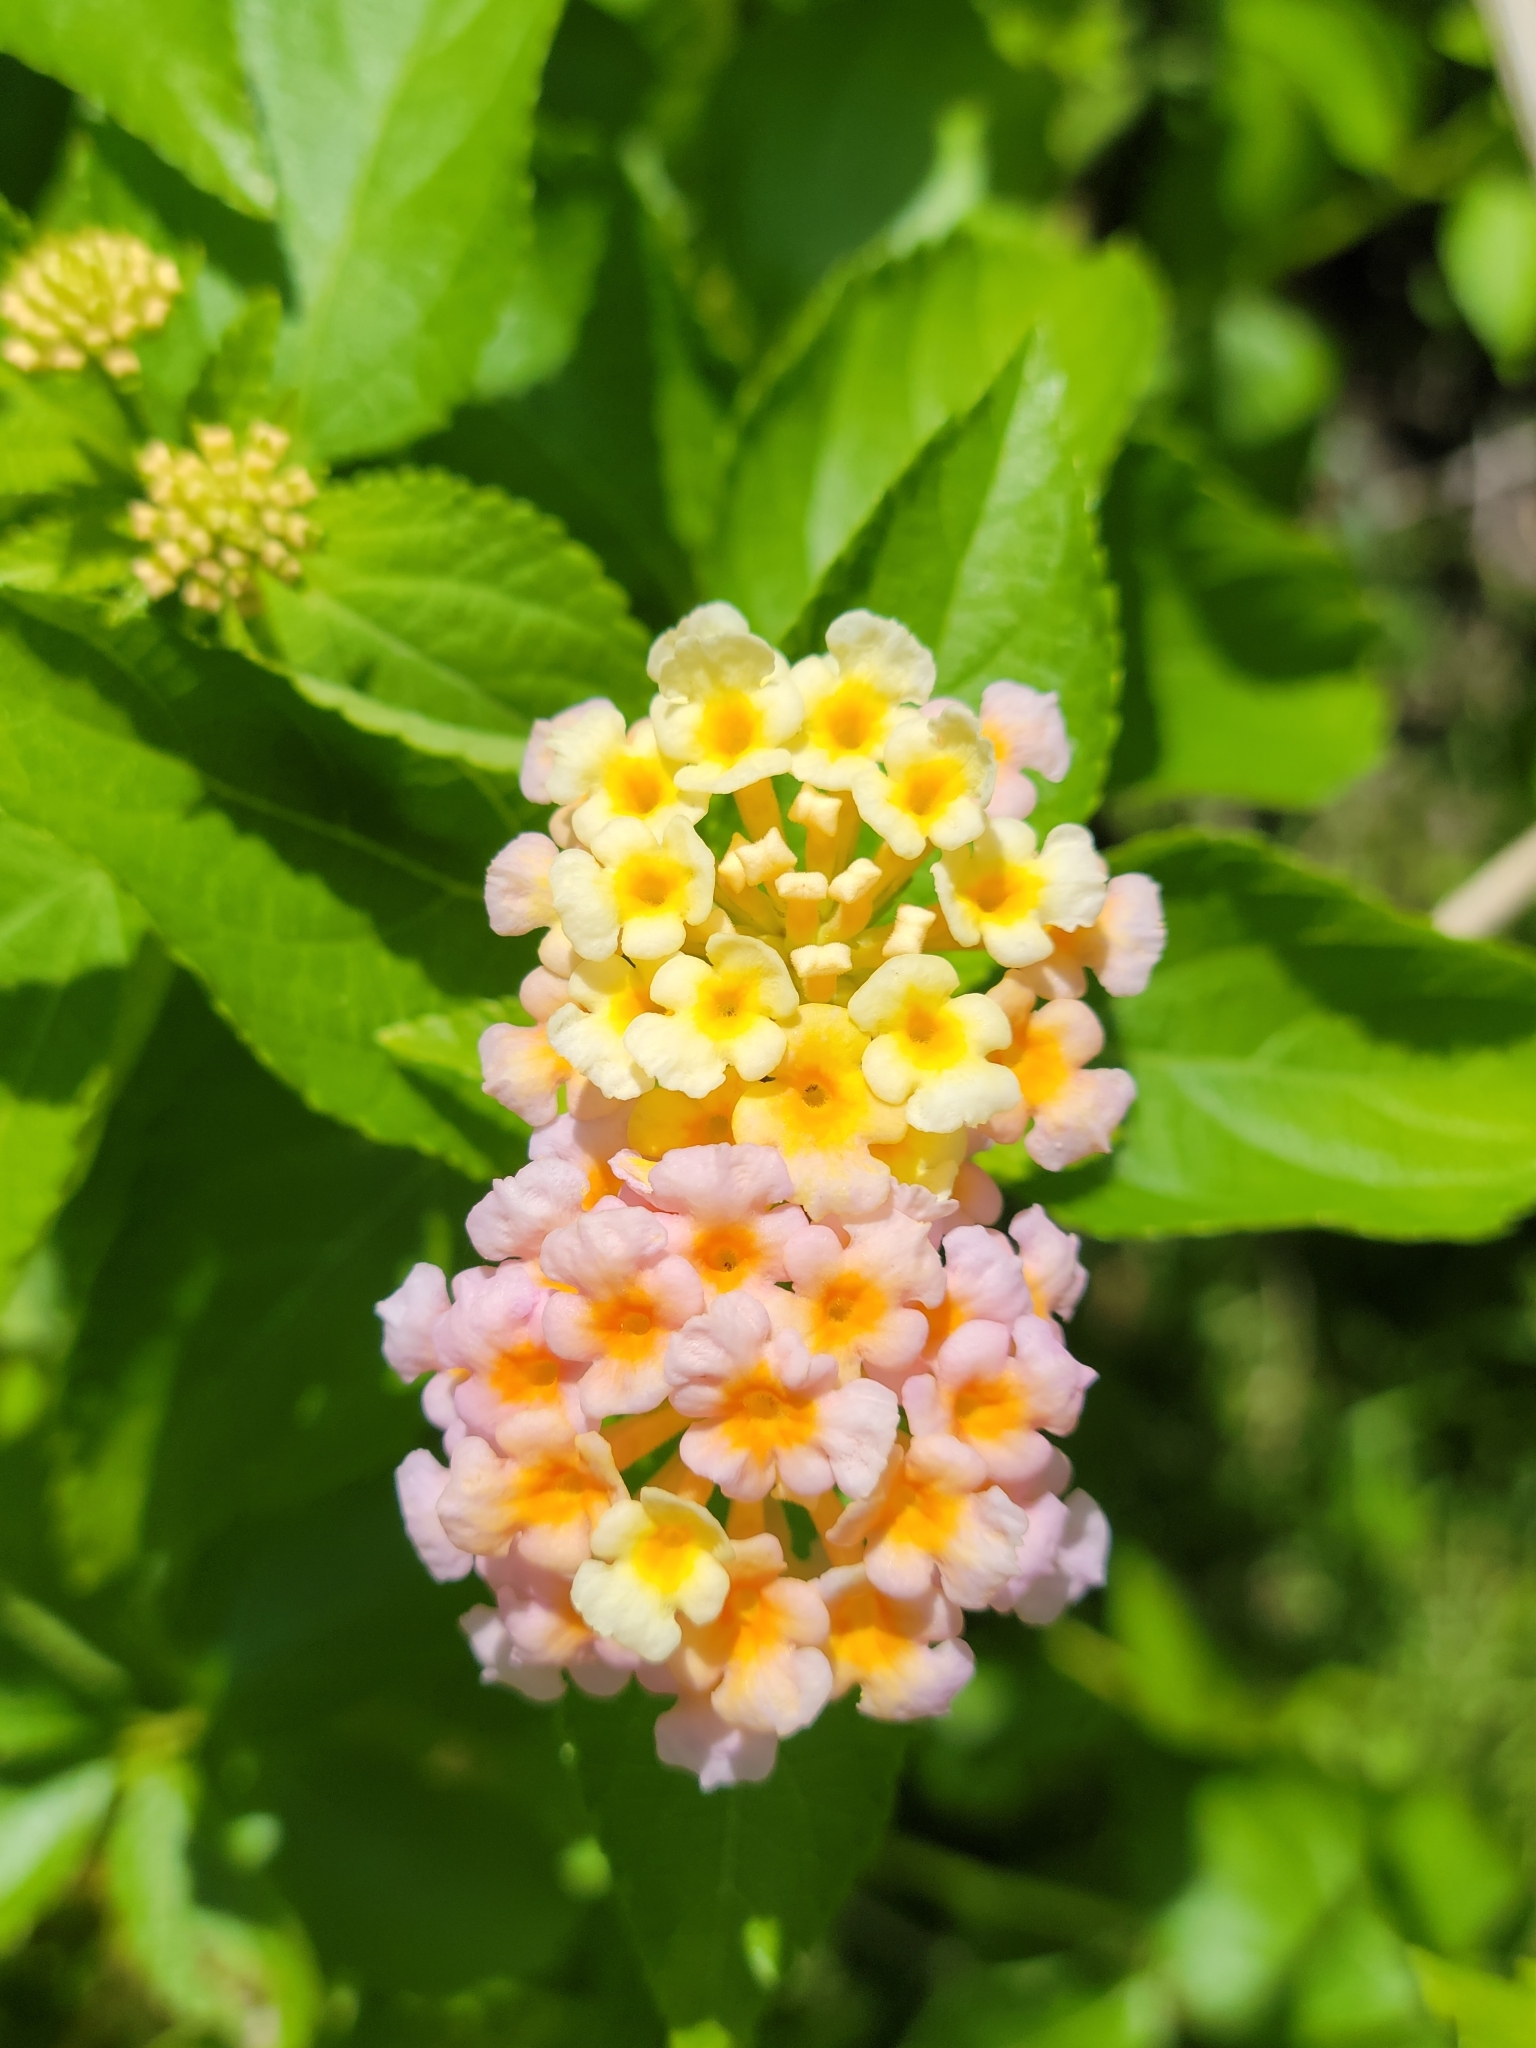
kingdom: Plantae
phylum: Tracheophyta
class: Magnoliopsida
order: Lamiales
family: Verbenaceae
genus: Lantana
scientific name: Lantana strigocamara
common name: Lantana
